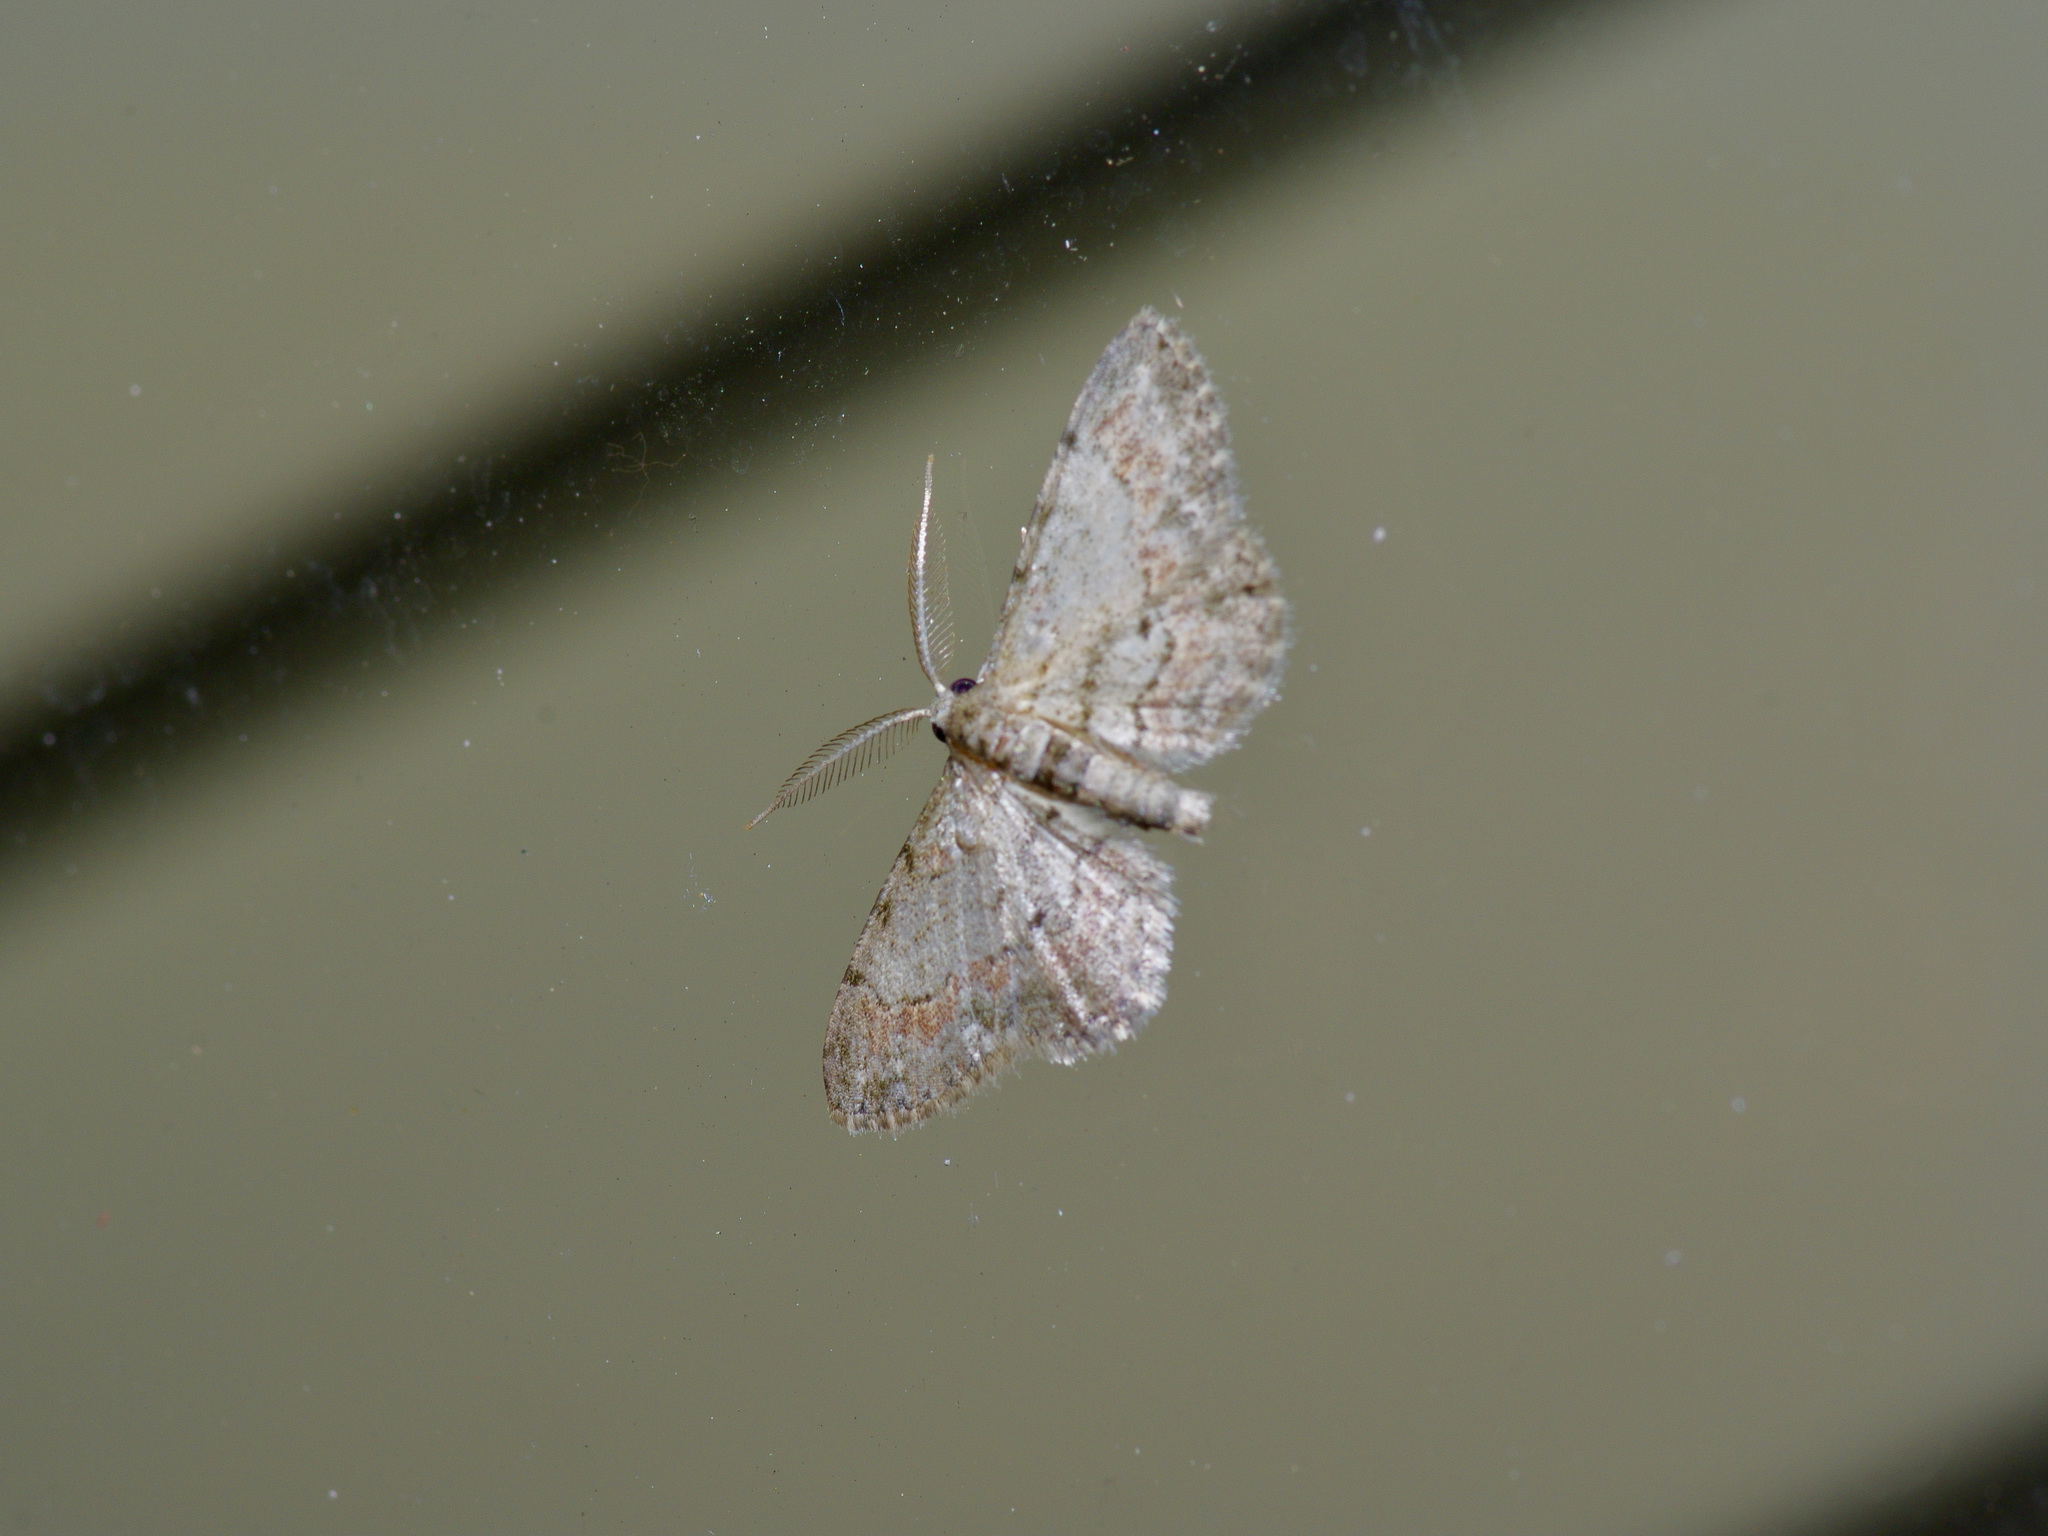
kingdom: Animalia
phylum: Arthropoda
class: Insecta
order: Lepidoptera
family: Geometridae
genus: Glenoides
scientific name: Glenoides texanaria
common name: Texas gray
